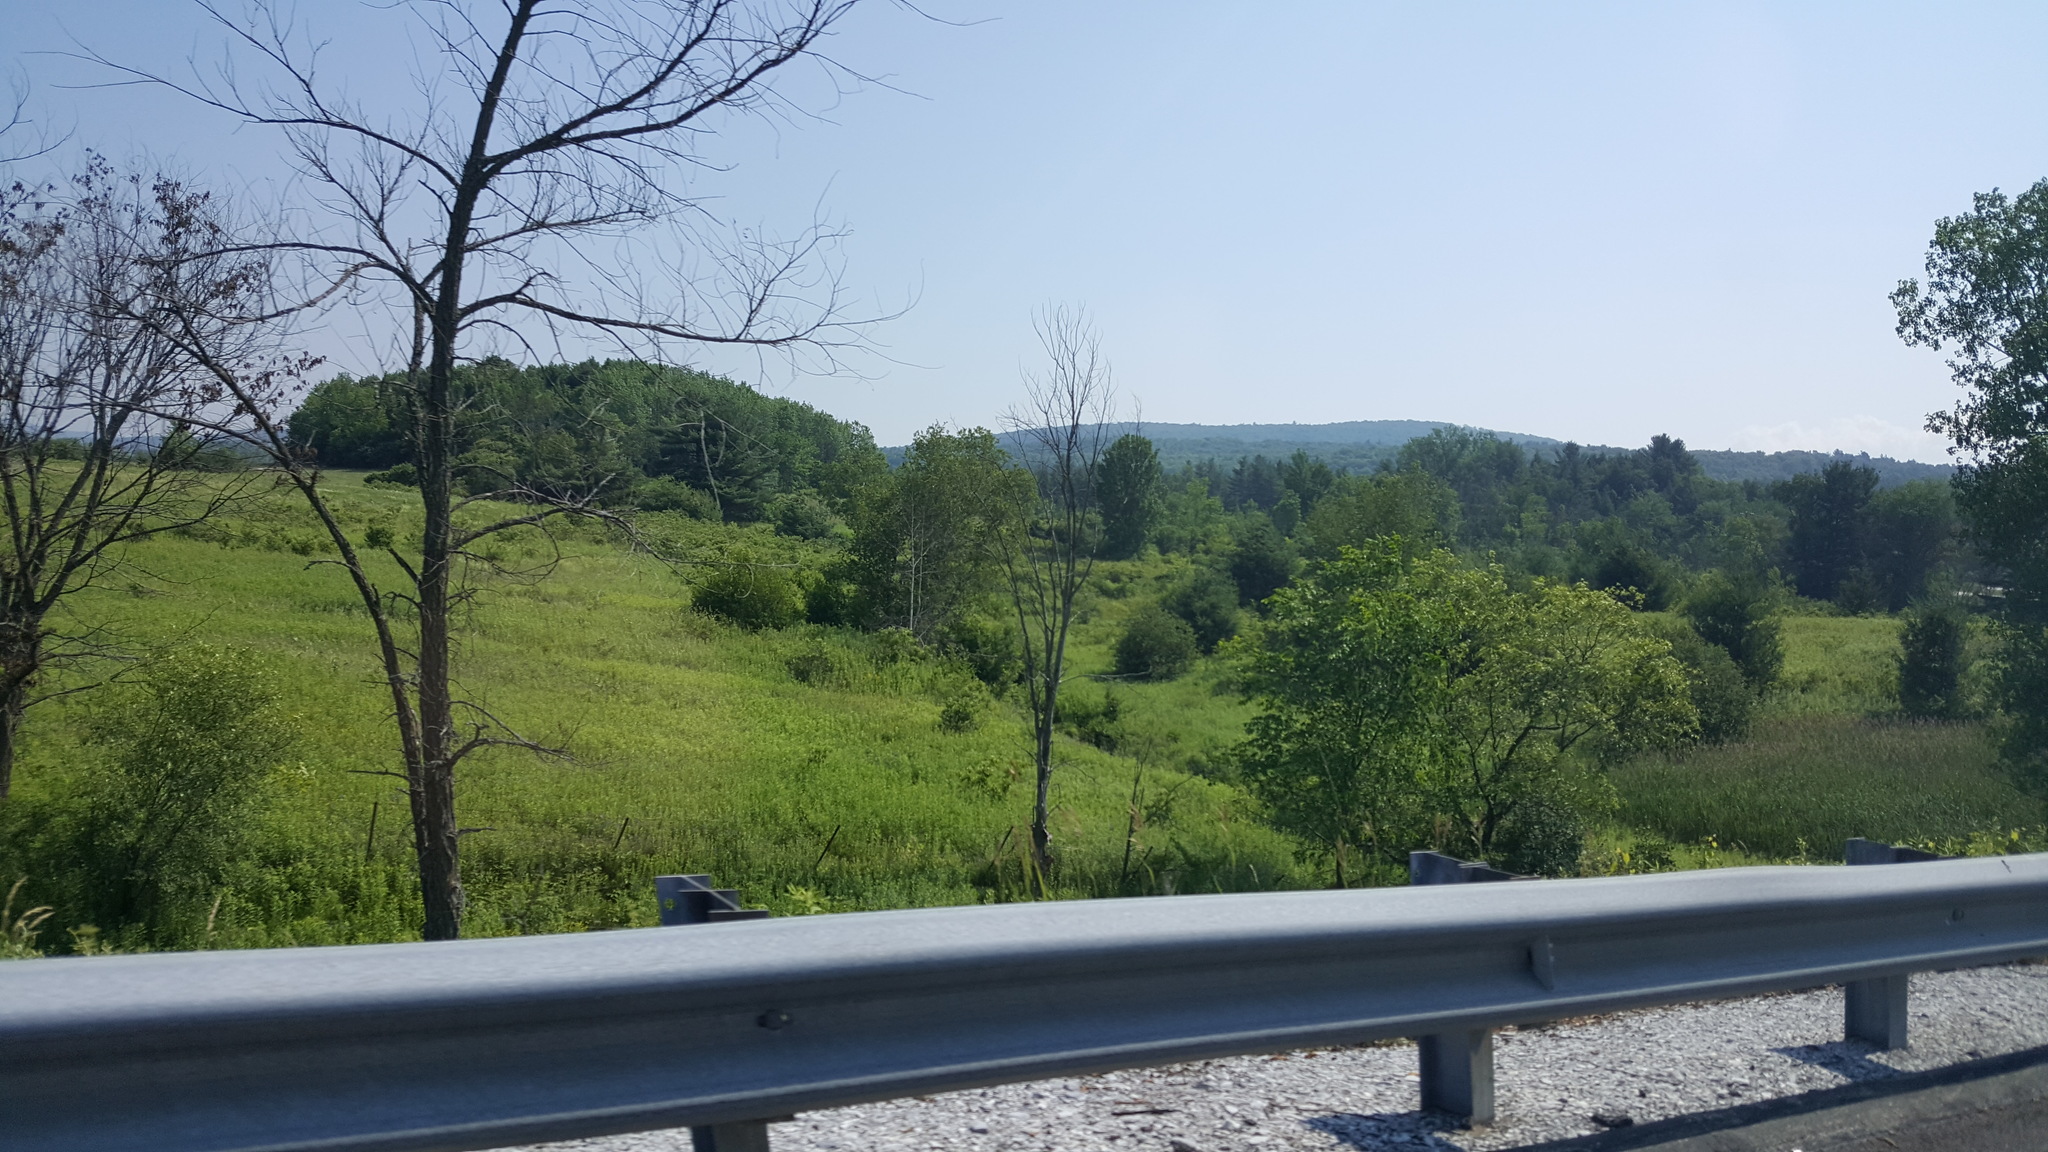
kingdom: Plantae
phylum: Tracheophyta
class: Magnoliopsida
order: Rosales
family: Ulmaceae
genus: Ulmus
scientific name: Ulmus americana
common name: American elm
